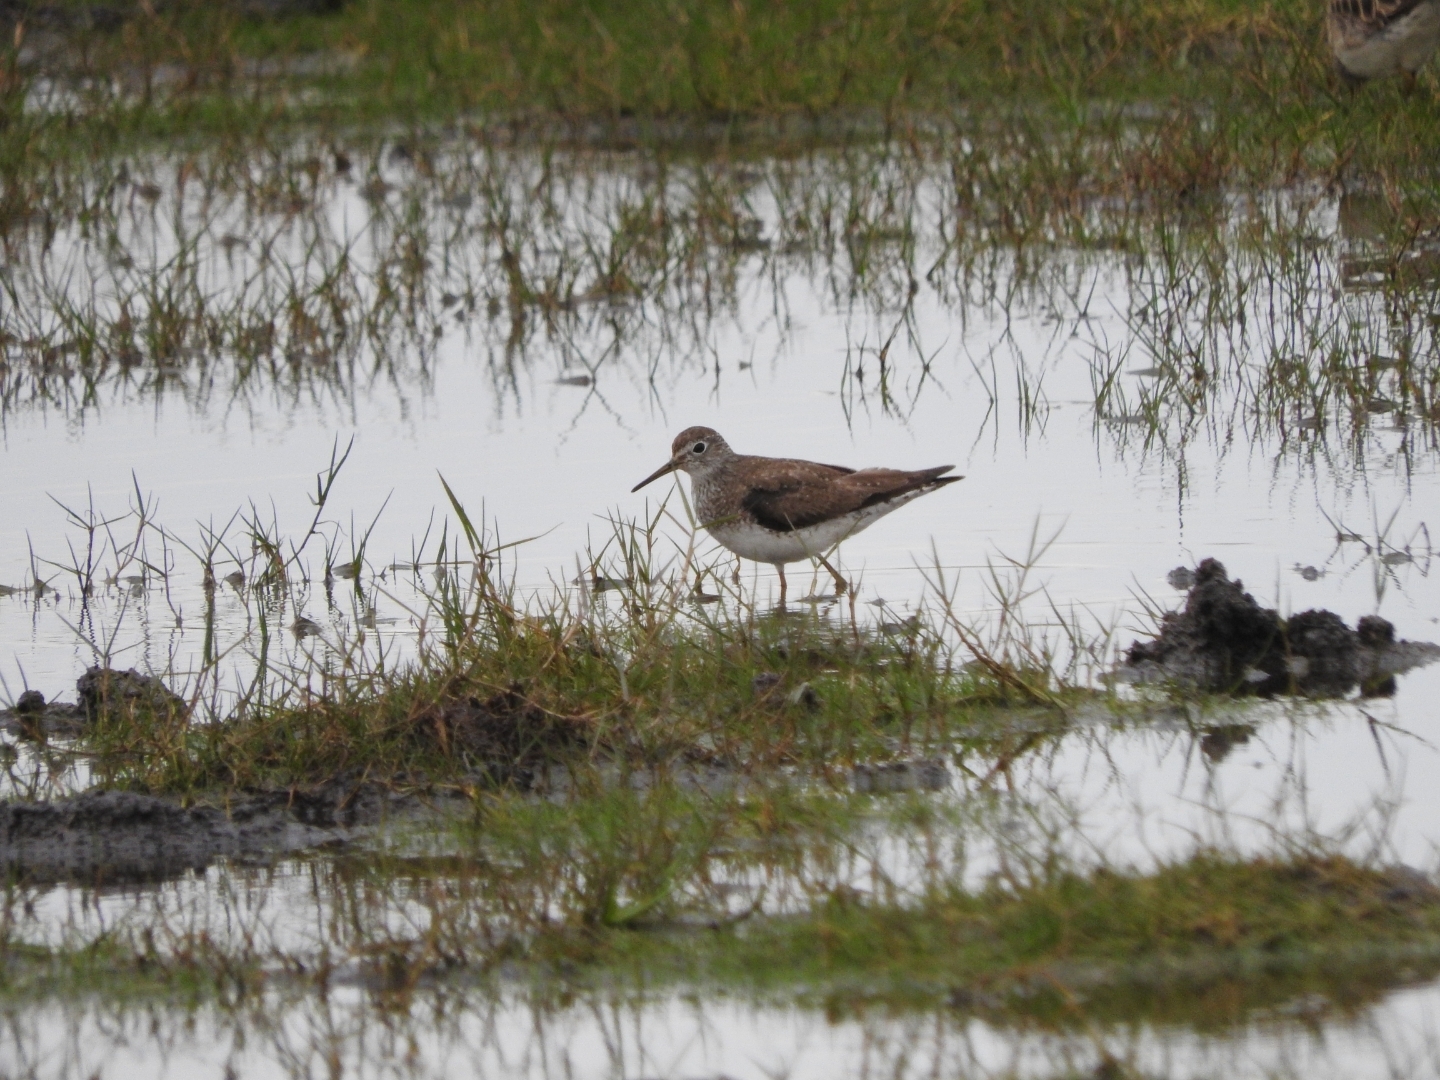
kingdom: Animalia
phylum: Chordata
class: Aves
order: Charadriiformes
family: Scolopacidae
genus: Tringa
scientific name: Tringa solitaria
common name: Solitary sandpiper
